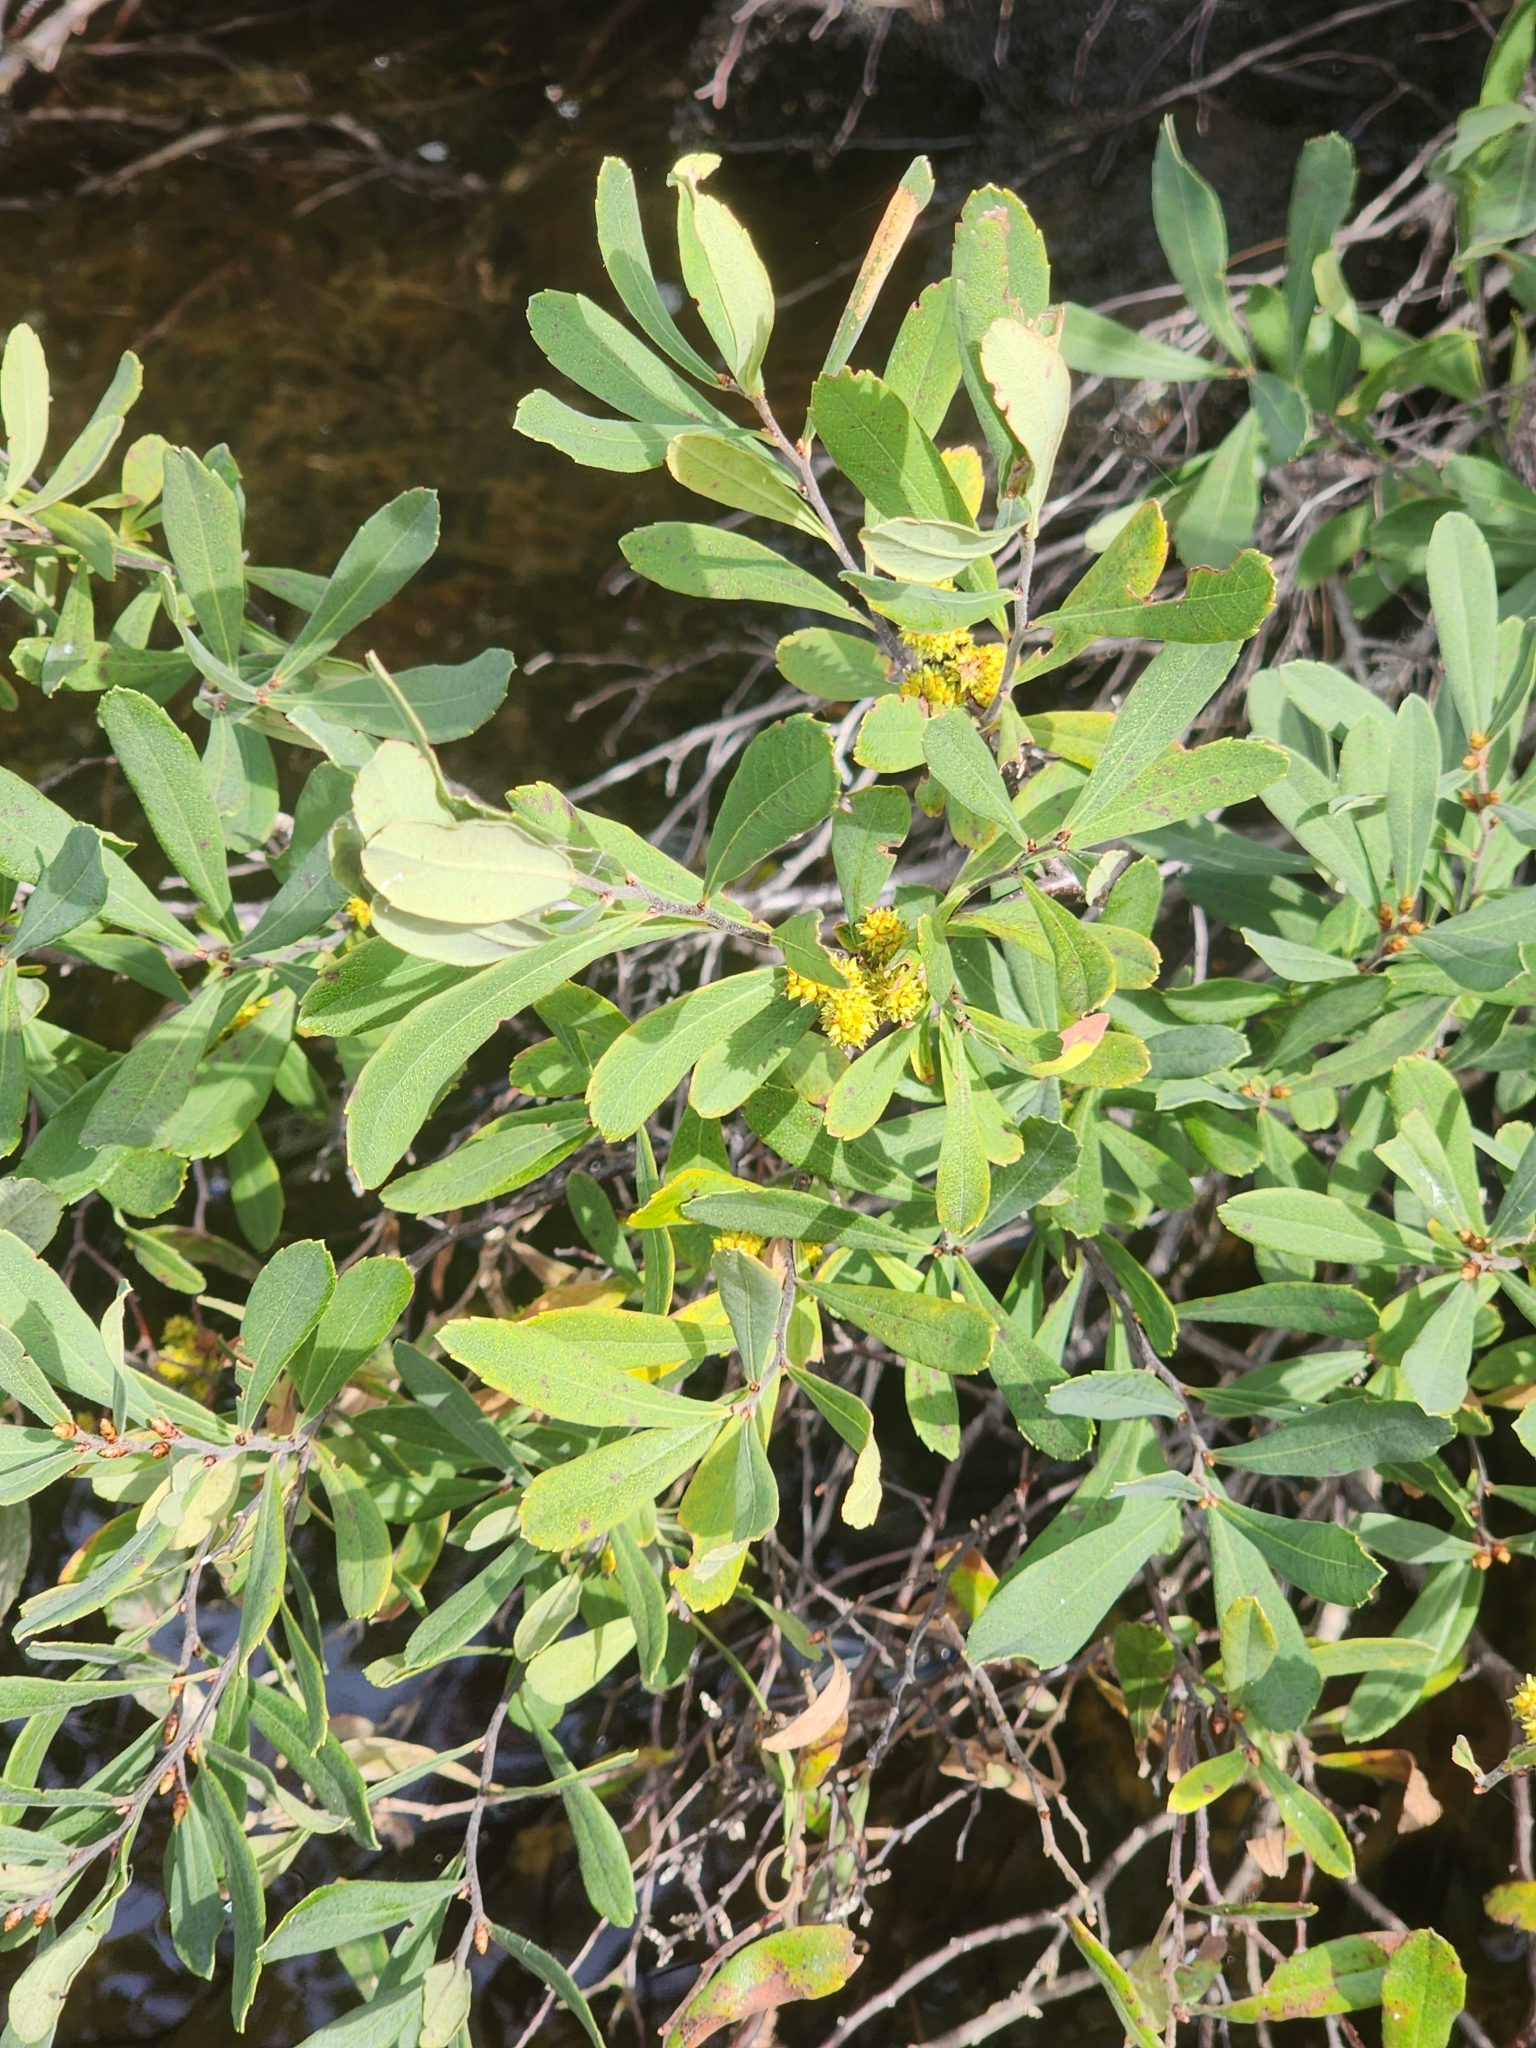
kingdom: Plantae
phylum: Tracheophyta
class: Magnoliopsida
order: Fagales
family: Myricaceae
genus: Myrica
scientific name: Myrica gale
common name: Sweet gale
